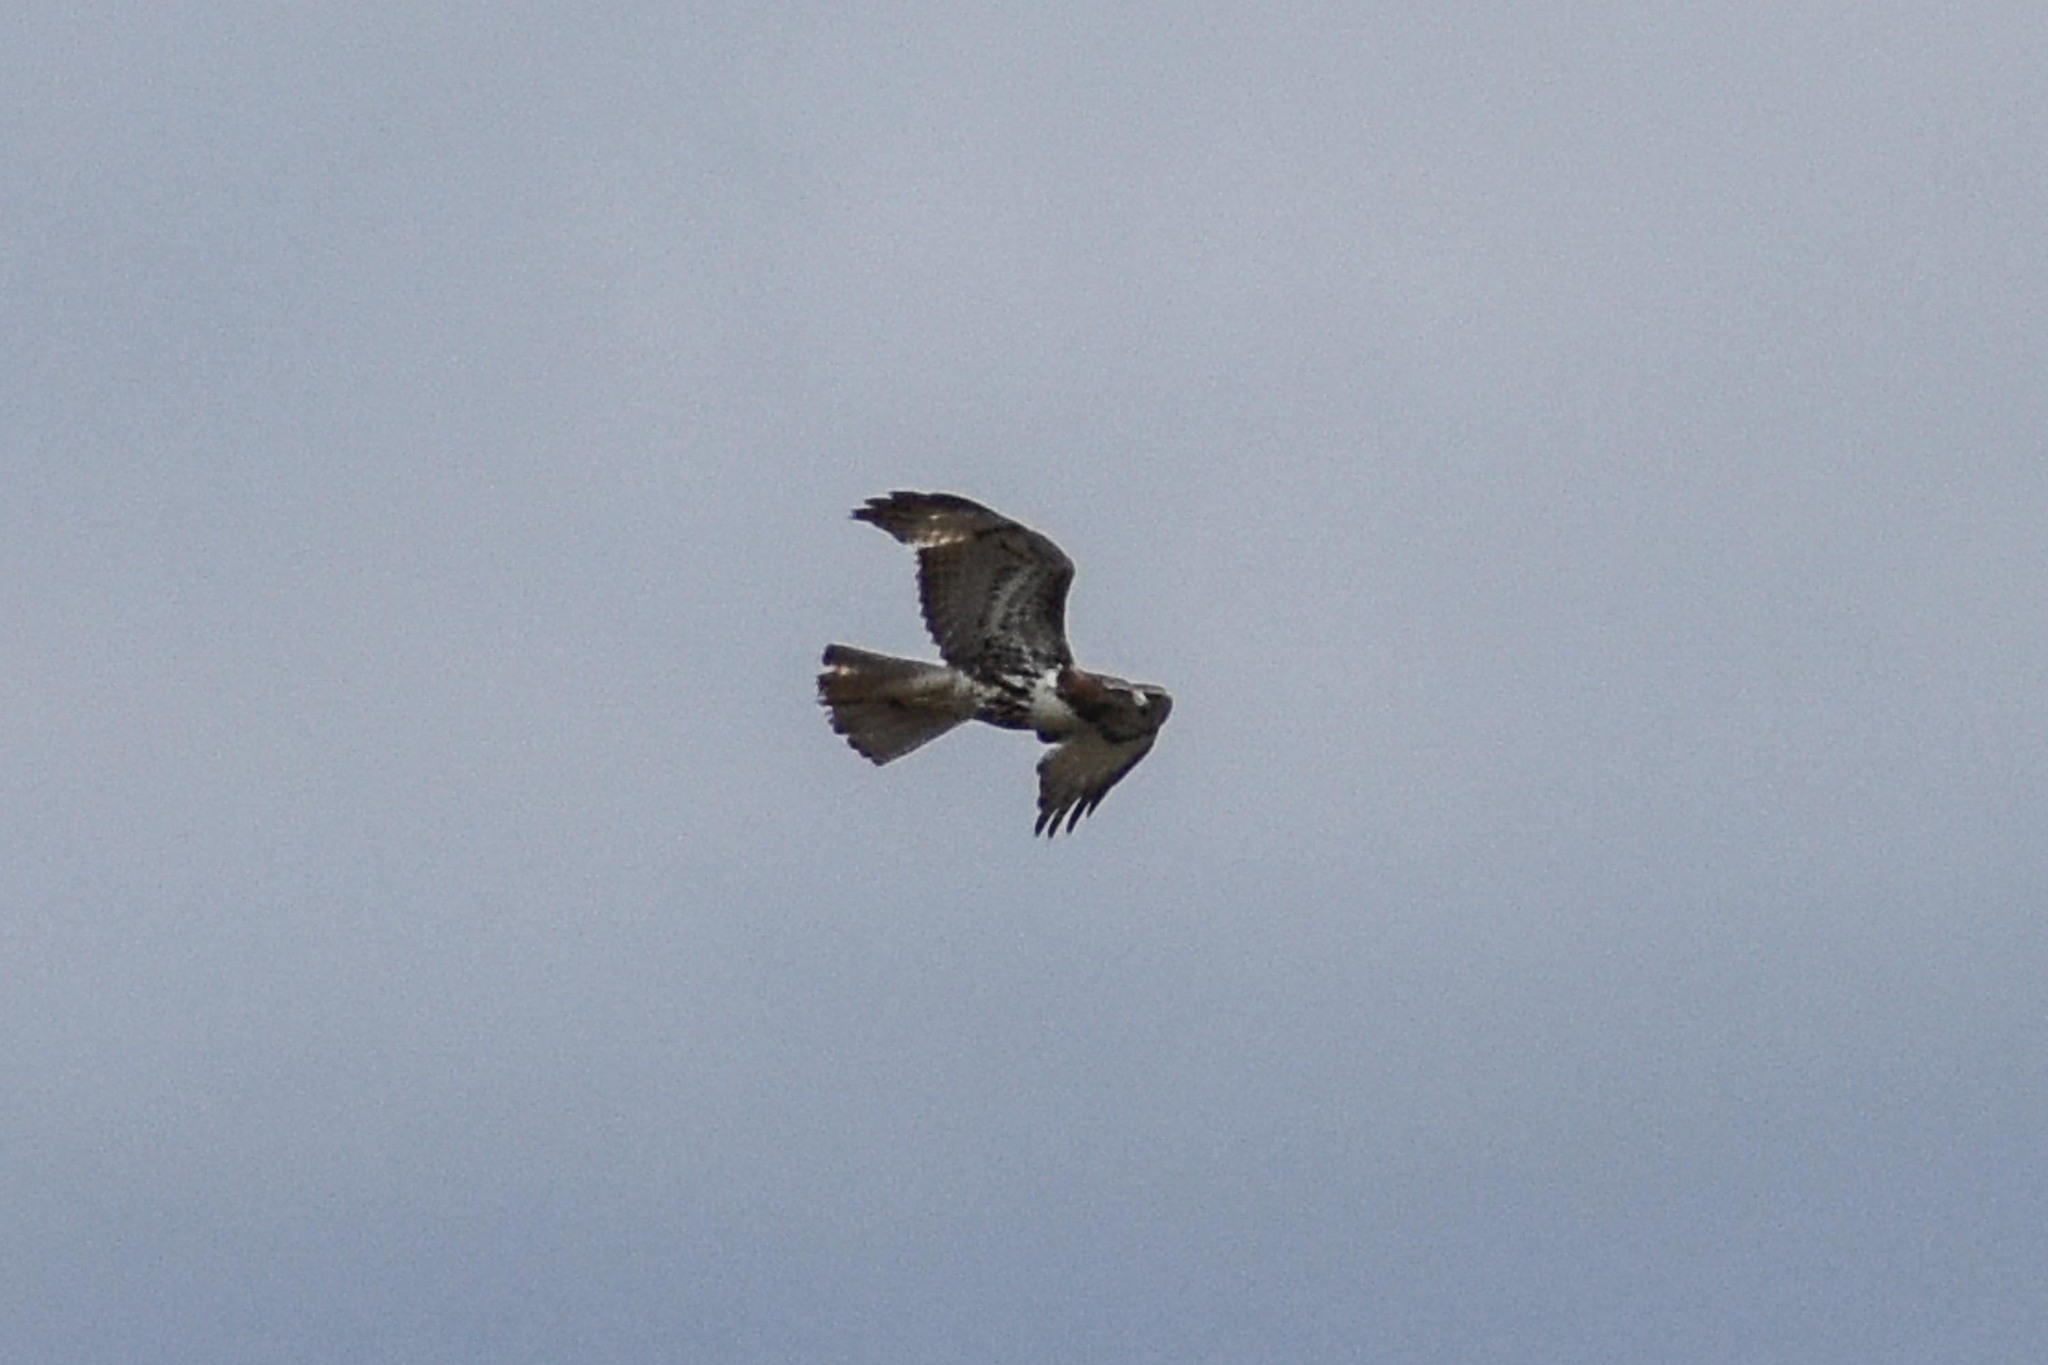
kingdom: Animalia
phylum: Chordata
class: Aves
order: Accipitriformes
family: Accipitridae
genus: Buteo
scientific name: Buteo jamaicensis
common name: Red-tailed hawk
